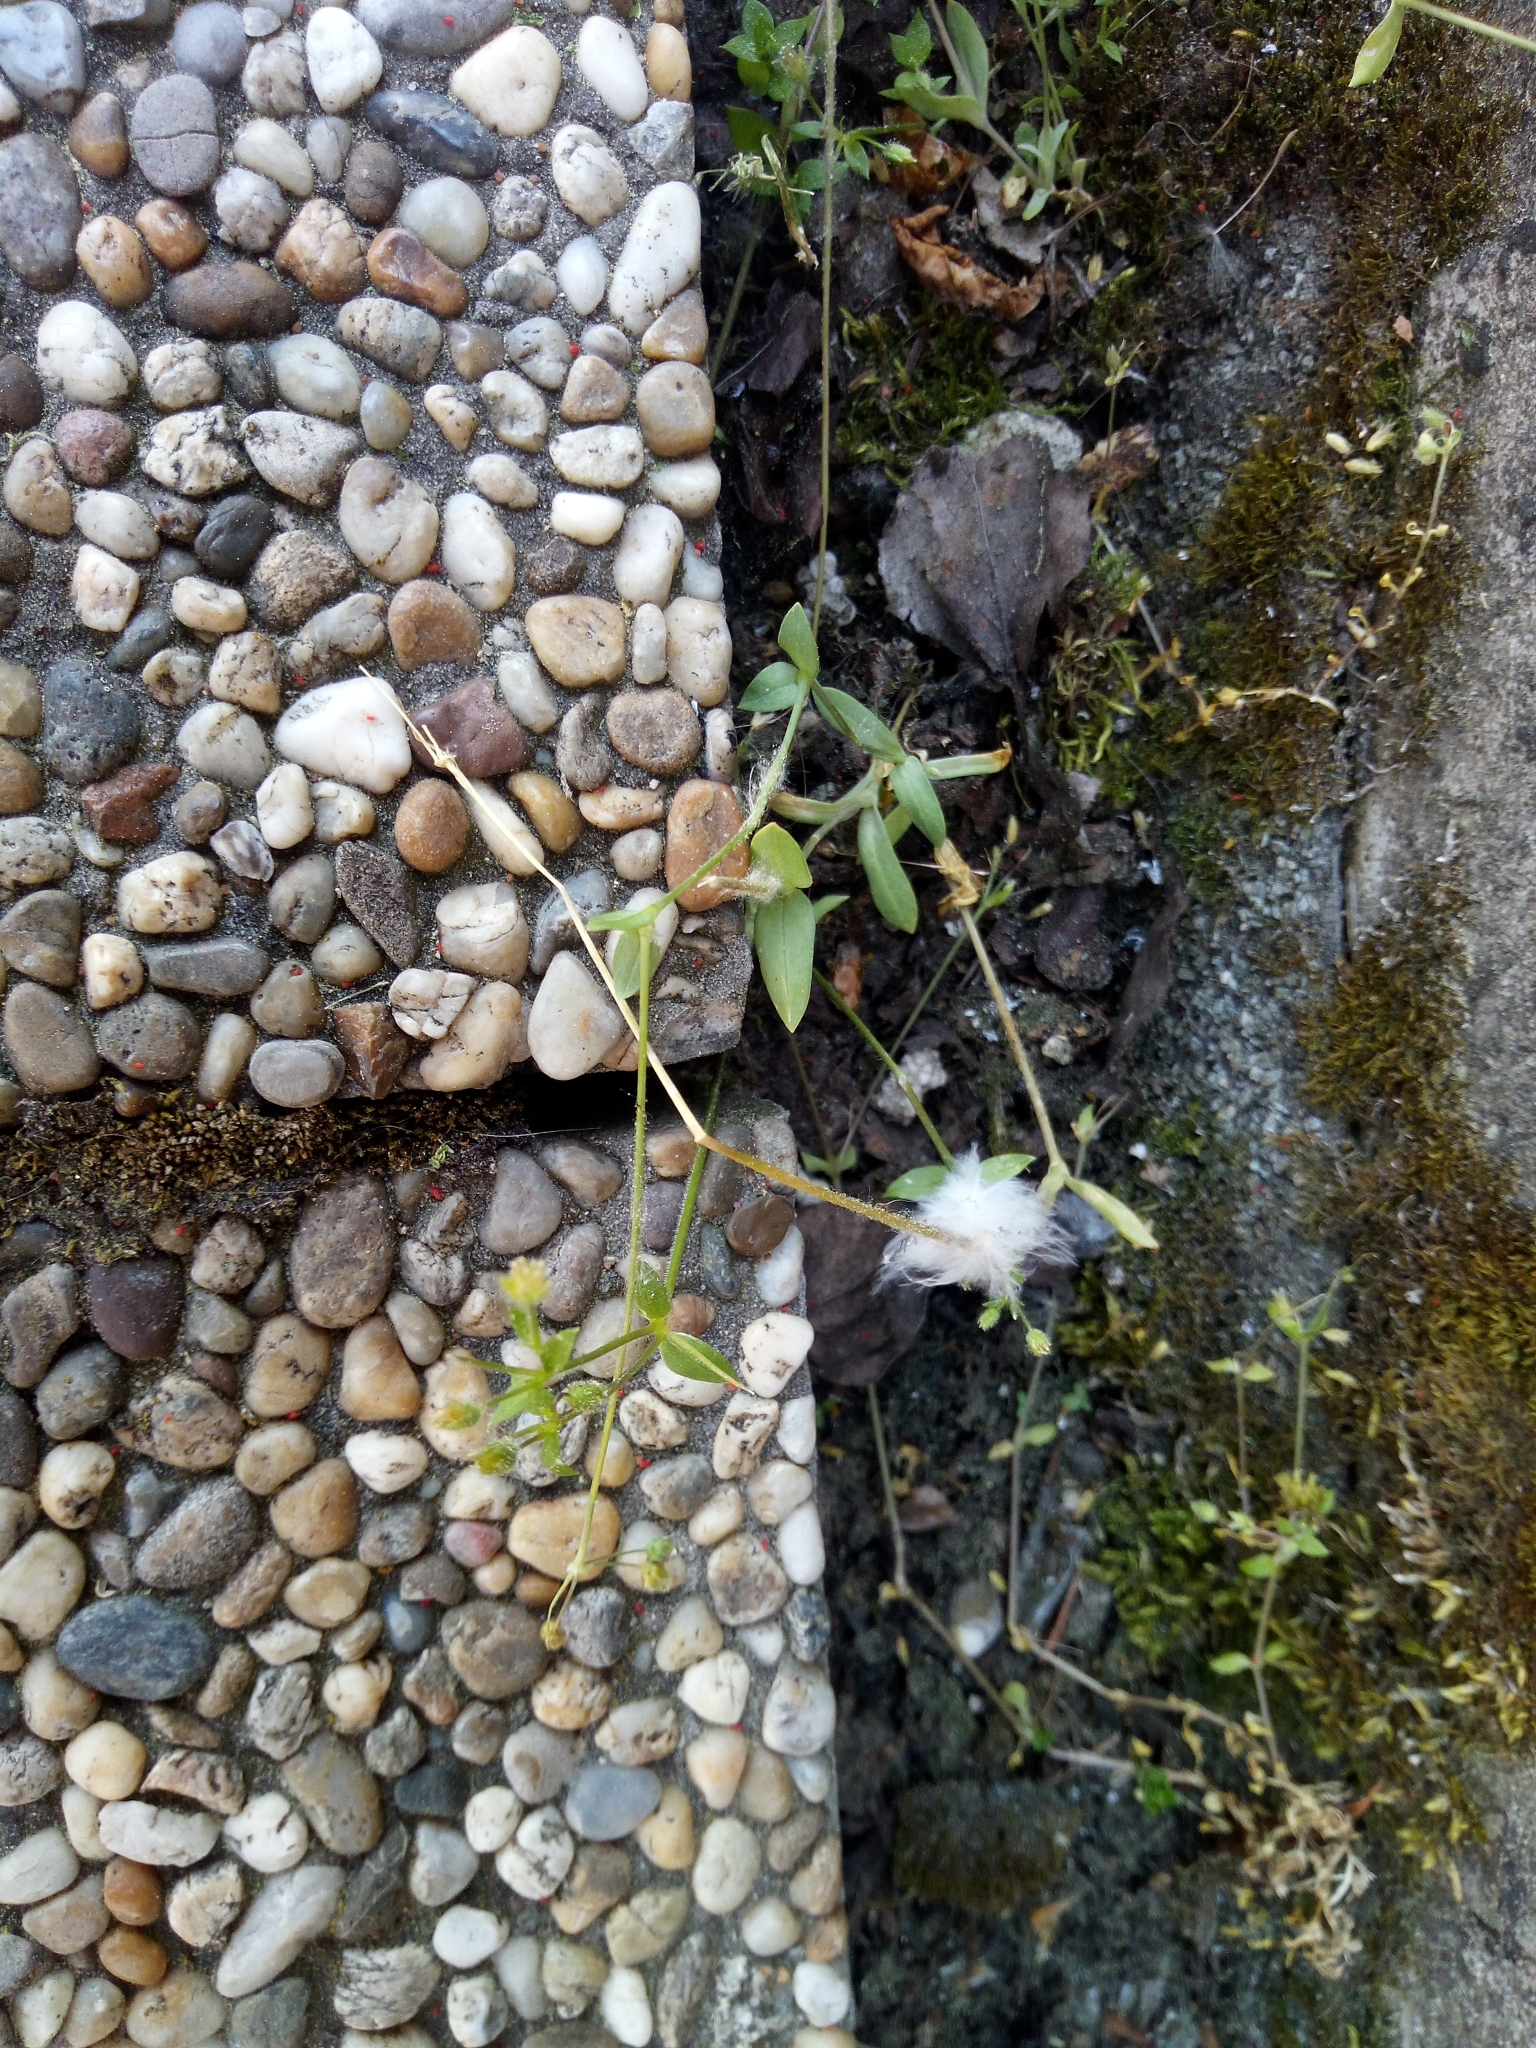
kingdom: Plantae
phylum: Tracheophyta
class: Magnoliopsida
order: Caryophyllales
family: Caryophyllaceae
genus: Holosteum
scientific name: Holosteum umbellatum
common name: Jagged chickweed
